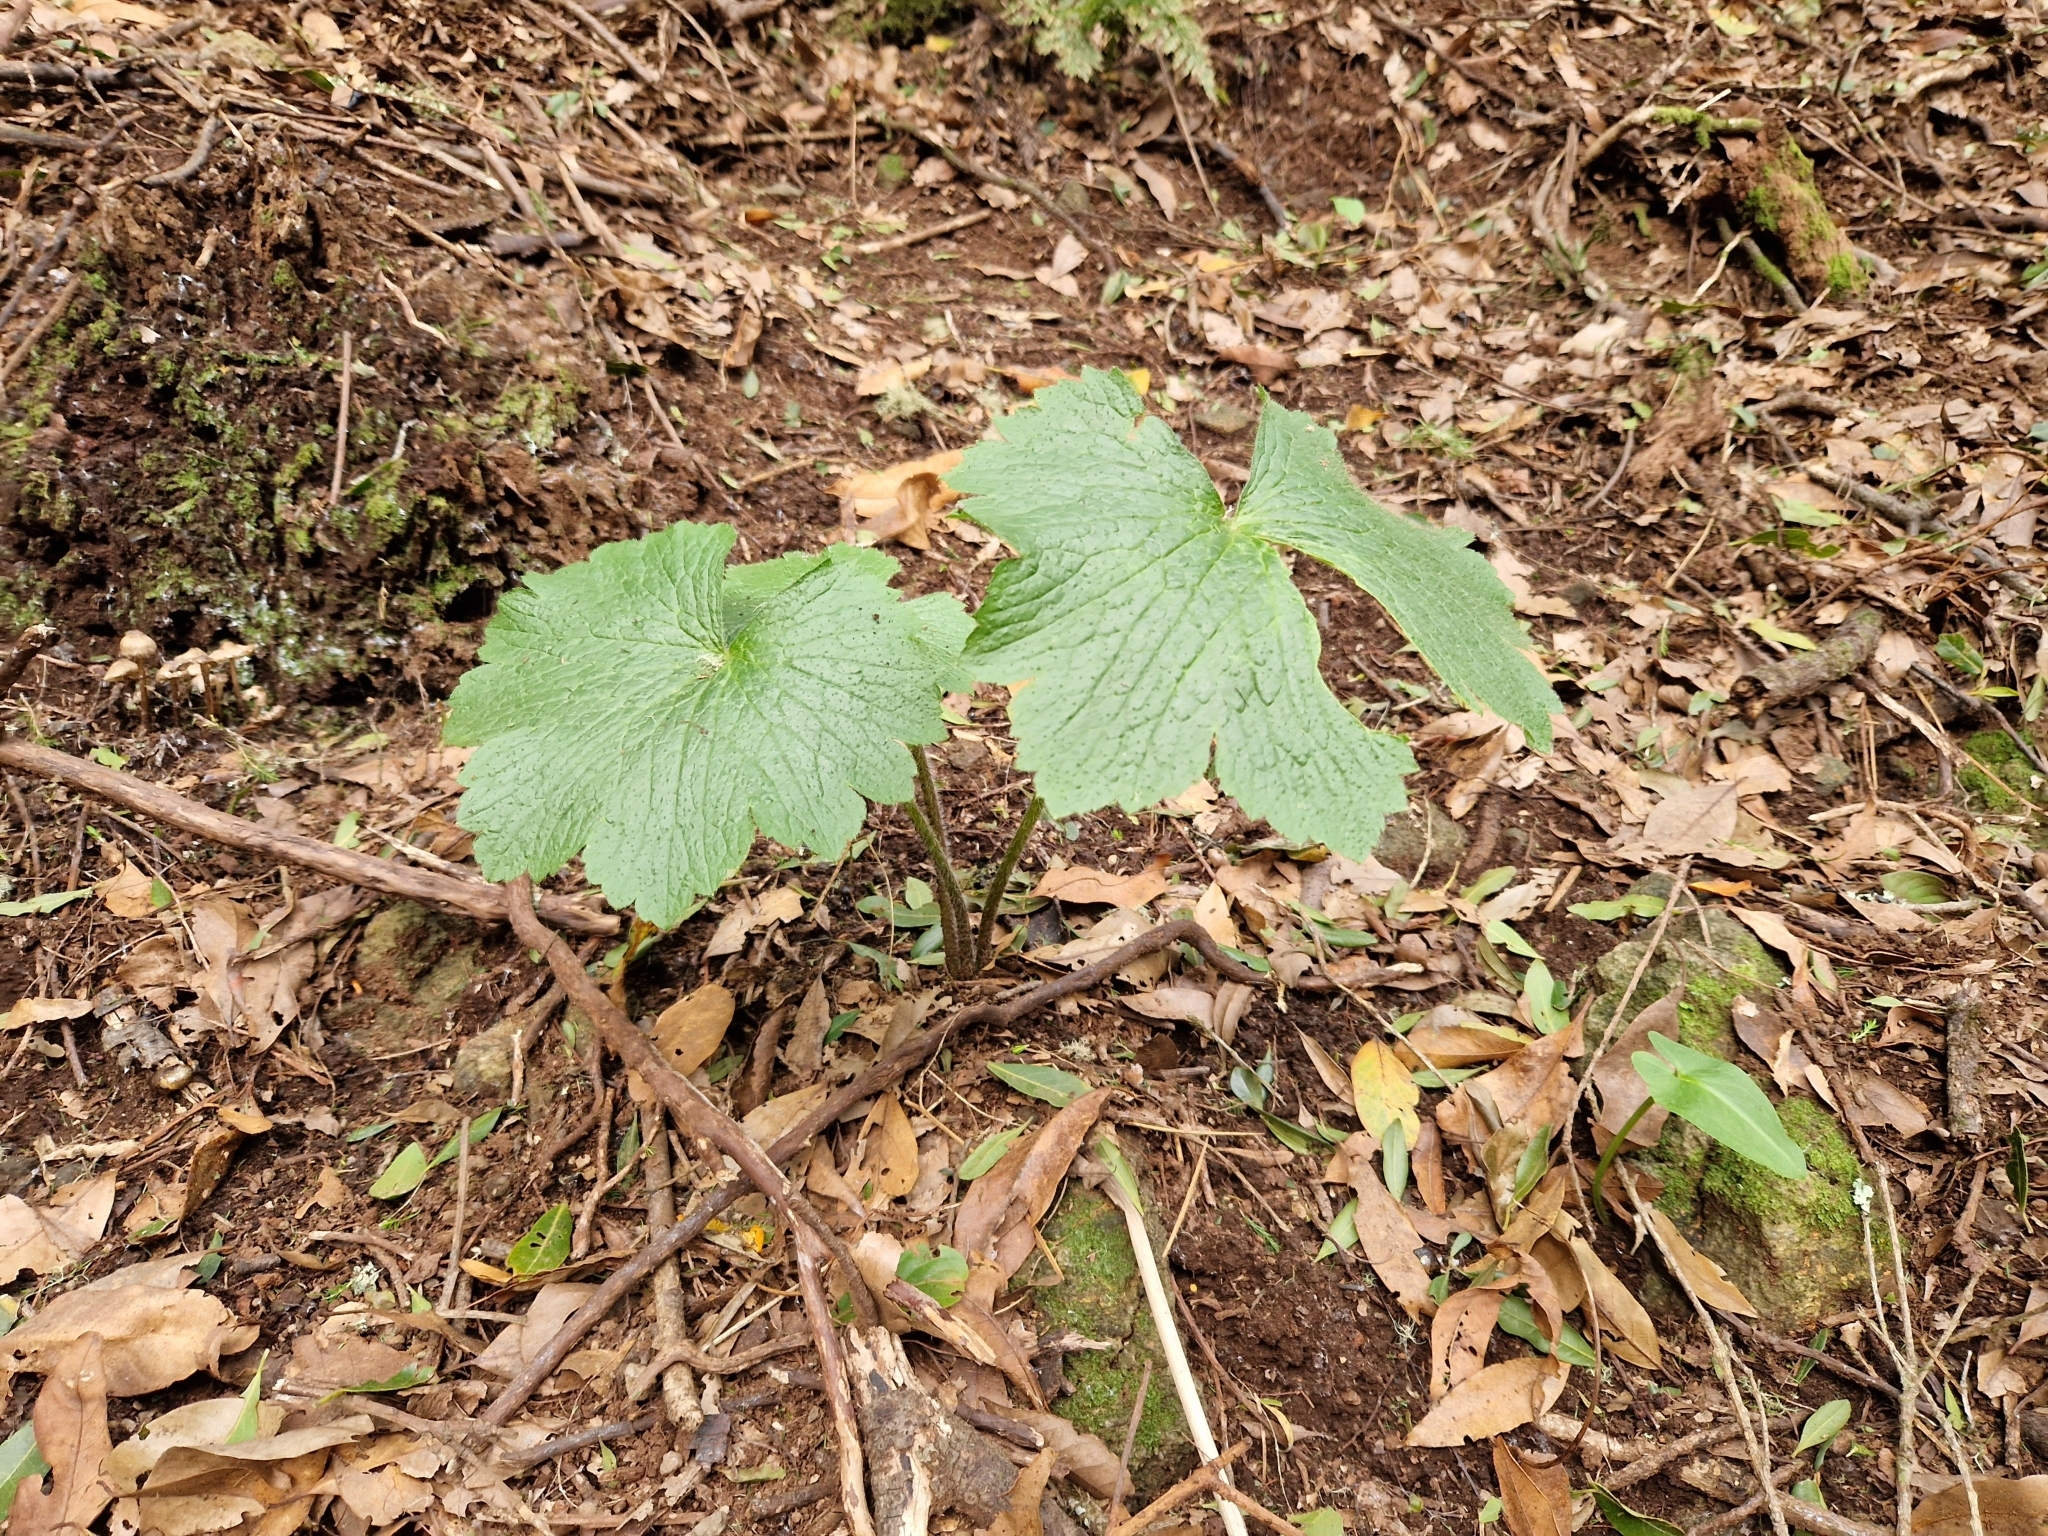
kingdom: Plantae
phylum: Tracheophyta
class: Magnoliopsida
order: Ranunculales
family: Ranunculaceae
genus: Ranunculus
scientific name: Ranunculus cortusifolius
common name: Azores buttercup
